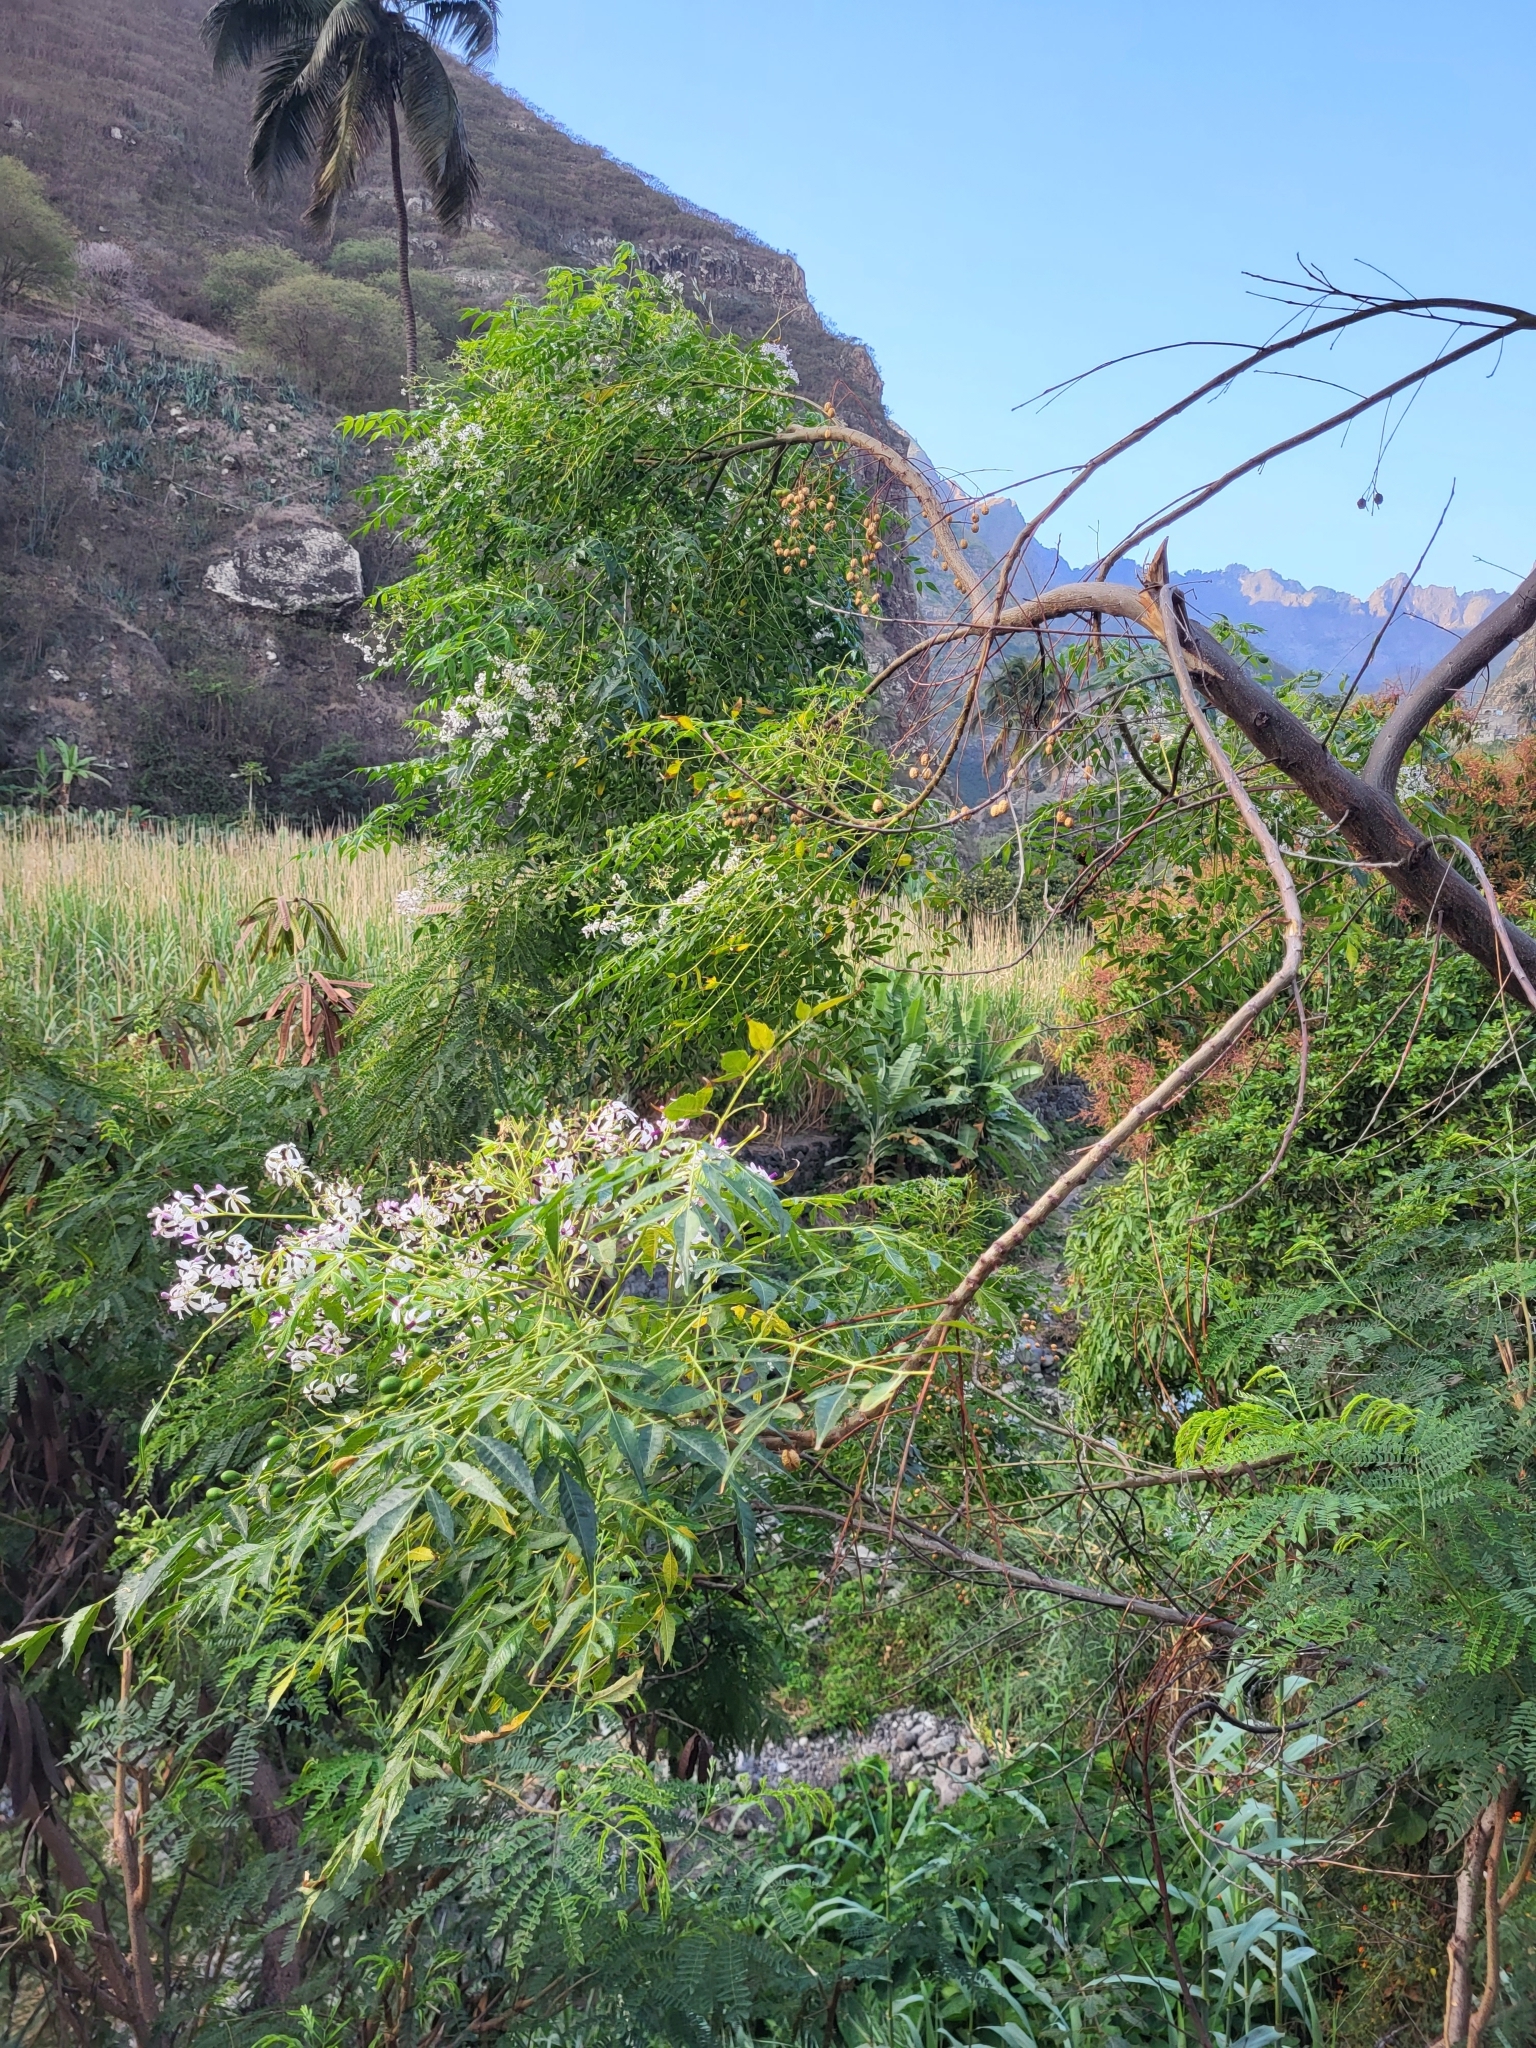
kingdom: Plantae
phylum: Tracheophyta
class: Magnoliopsida
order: Sapindales
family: Meliaceae
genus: Melia
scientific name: Melia azedarach
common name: Chinaberrytree
